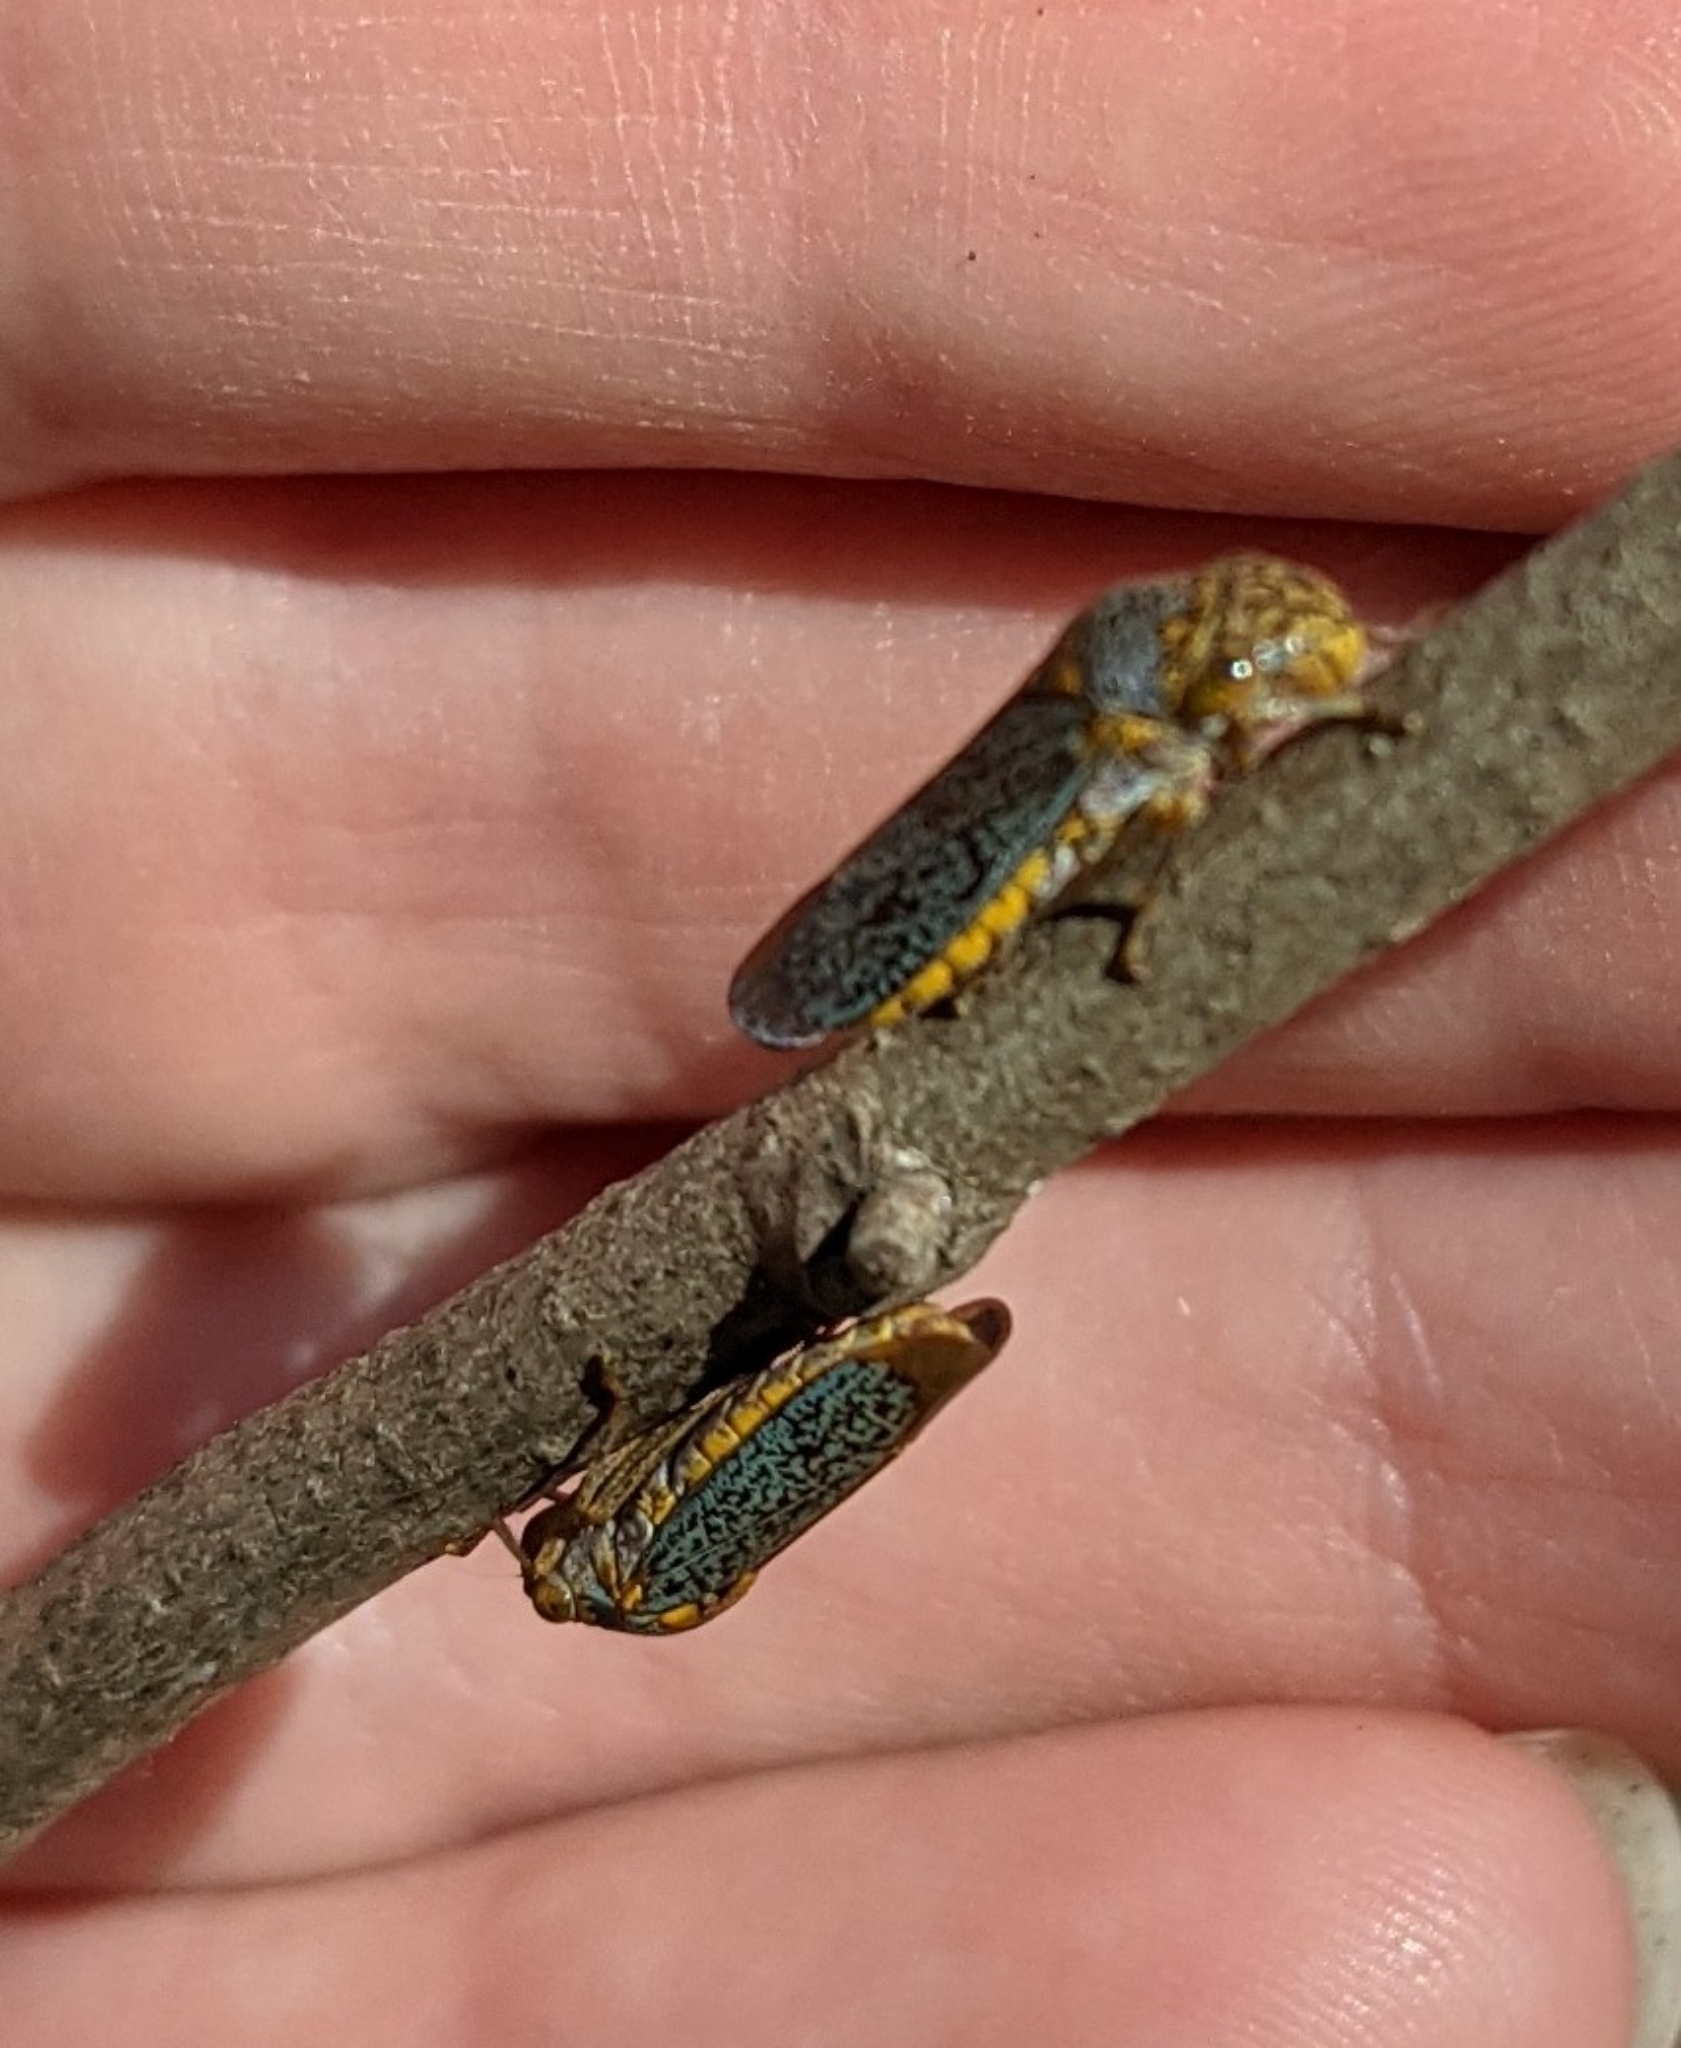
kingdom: Animalia
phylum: Arthropoda
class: Insecta
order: Hemiptera
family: Cicadellidae
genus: Oncometopia
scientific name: Oncometopia orbona
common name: Broad-headed sharpshooter
